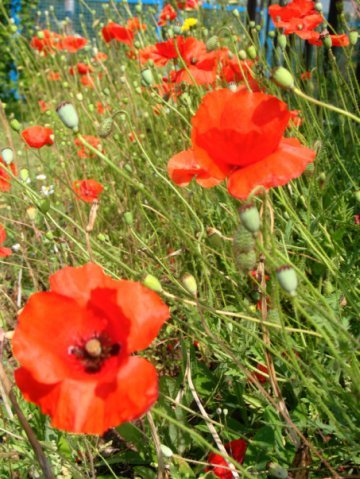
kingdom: Plantae
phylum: Tracheophyta
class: Magnoliopsida
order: Ranunculales
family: Papaveraceae
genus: Papaver
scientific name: Papaver rhoeas
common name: Corn poppy
